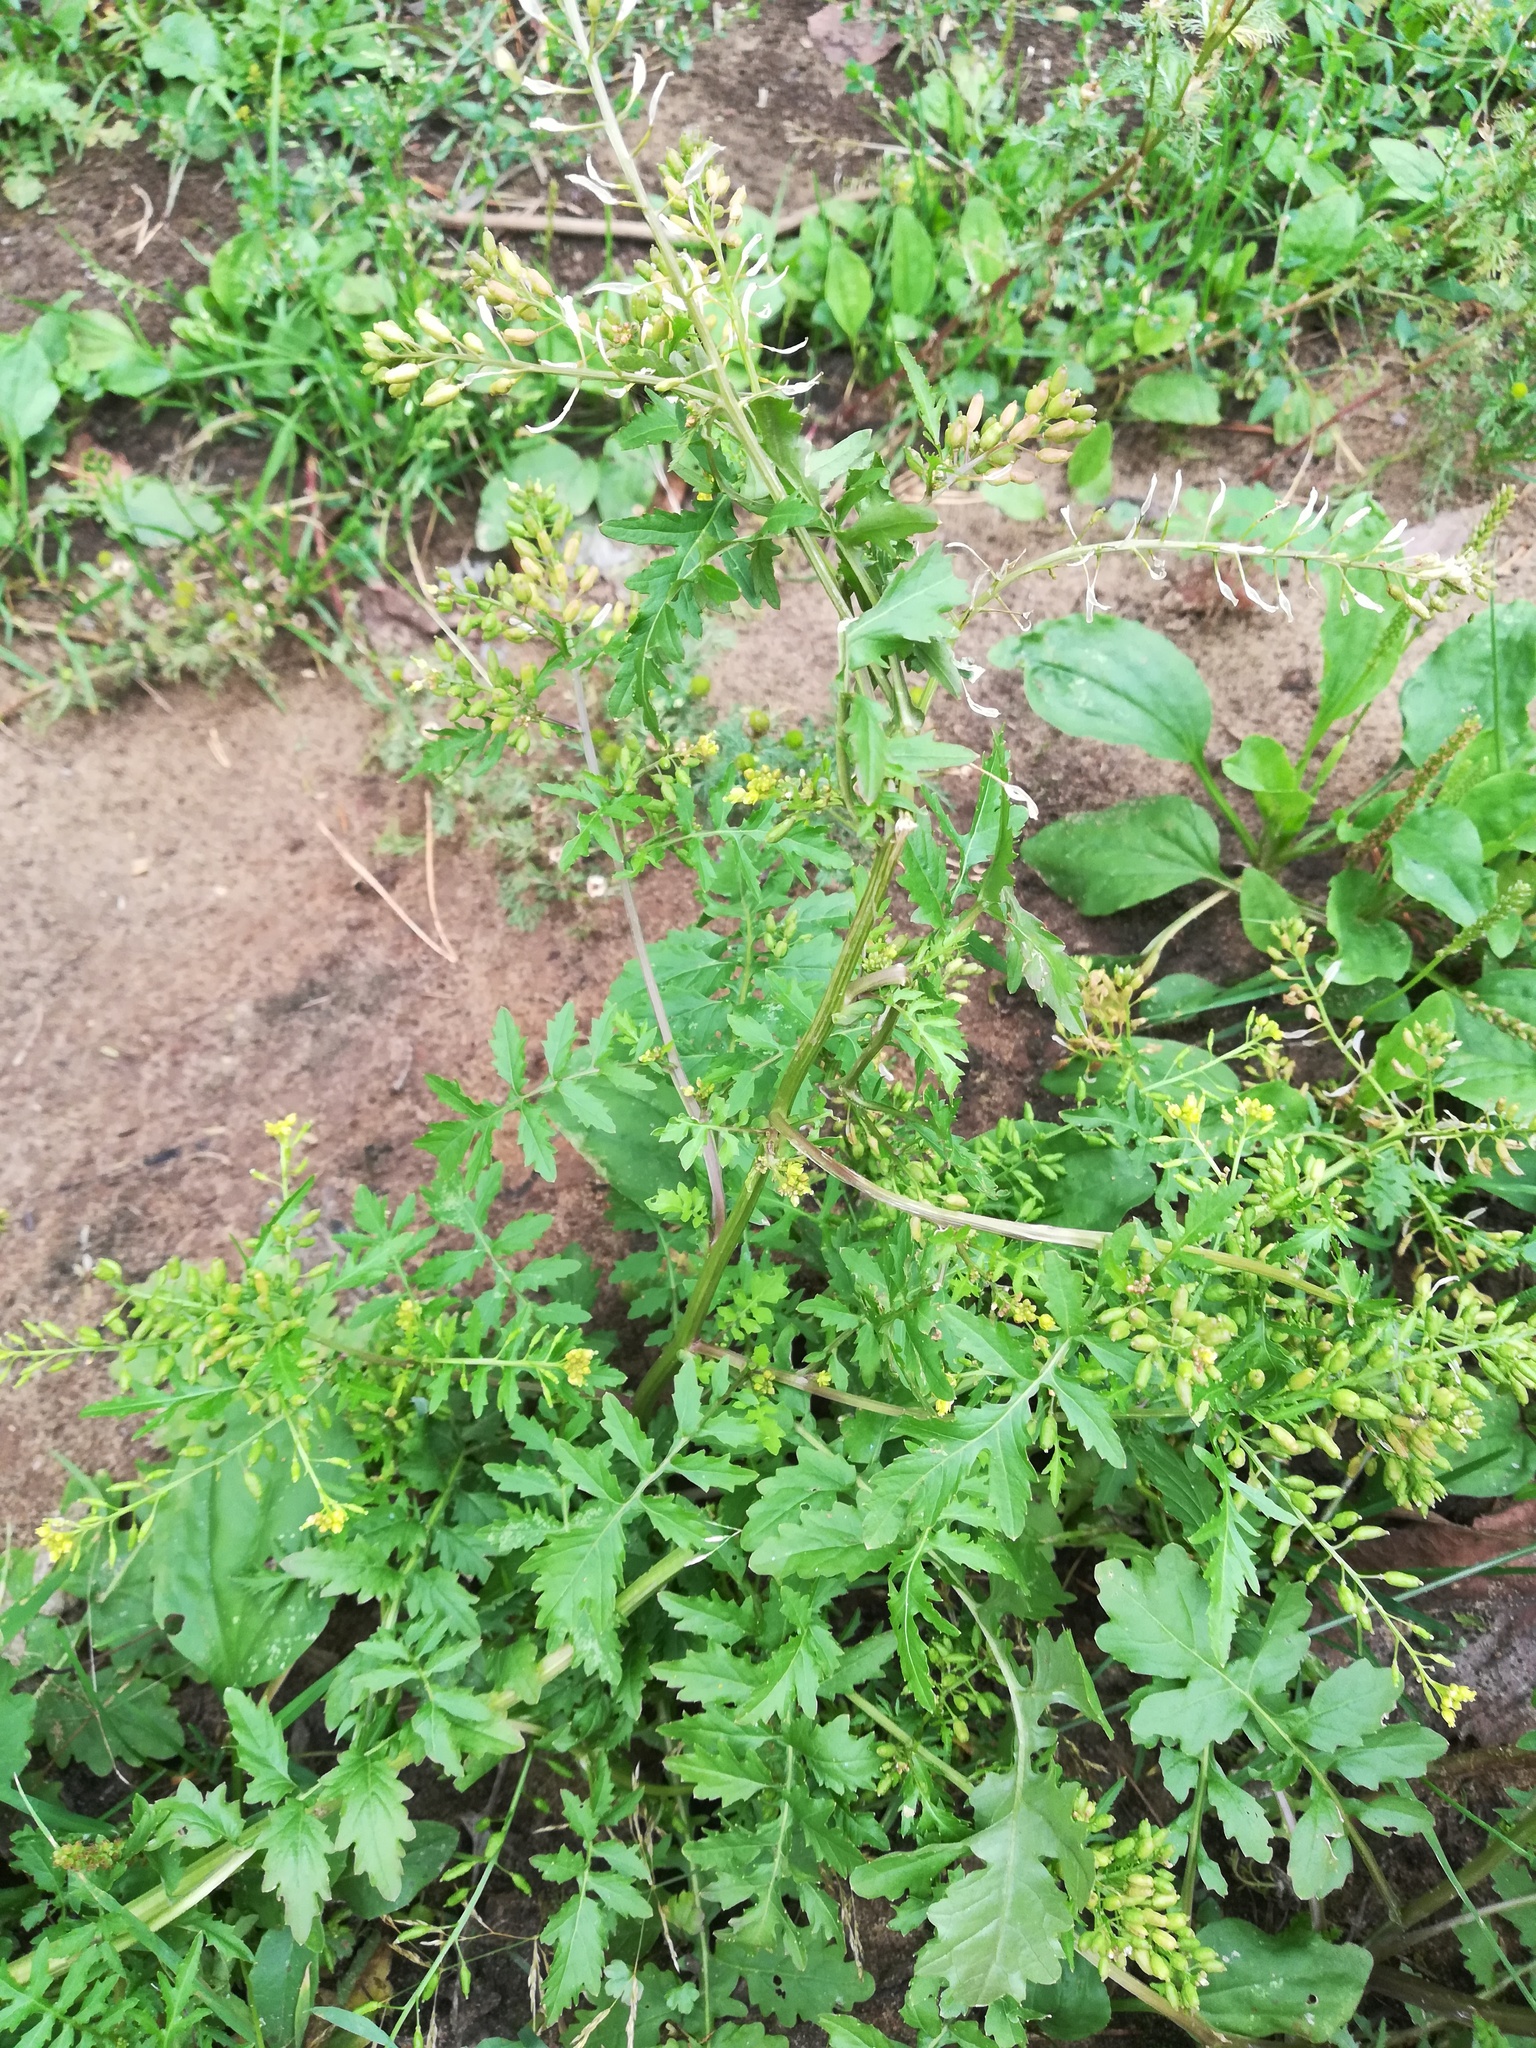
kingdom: Plantae
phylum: Tracheophyta
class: Magnoliopsida
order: Brassicales
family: Brassicaceae
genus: Rorippa
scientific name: Rorippa palustris
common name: Marsh yellow-cress
